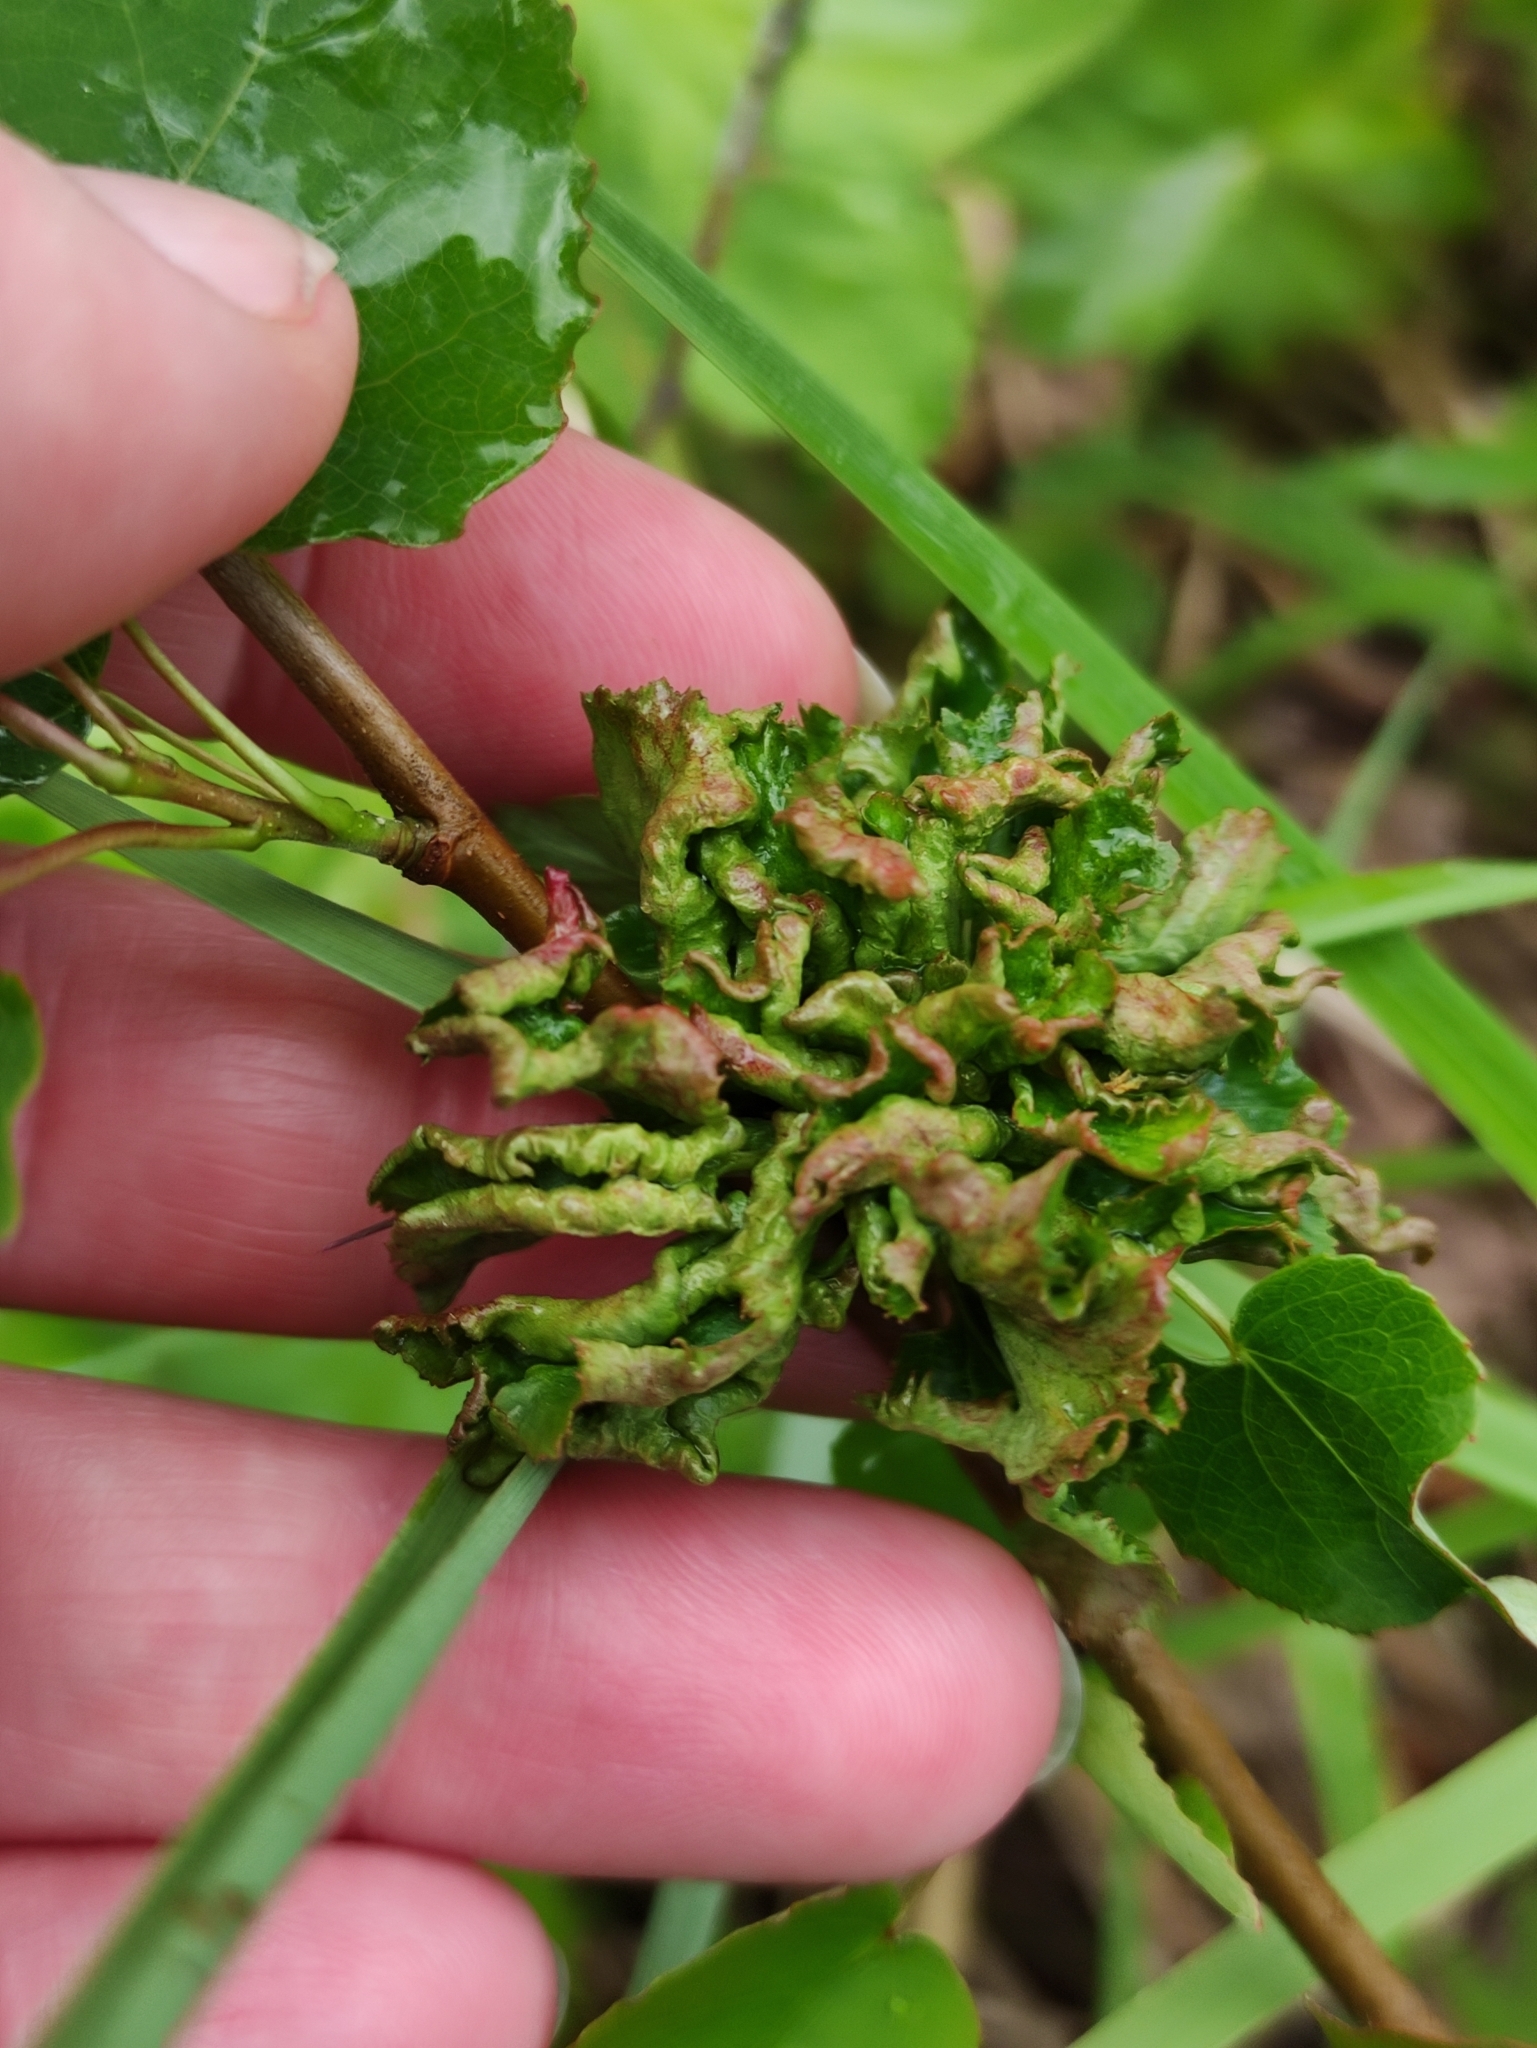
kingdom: Plantae
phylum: Tracheophyta
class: Magnoliopsida
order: Malpighiales
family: Salicaceae
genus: Populus
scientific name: Populus tremula
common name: European aspen
